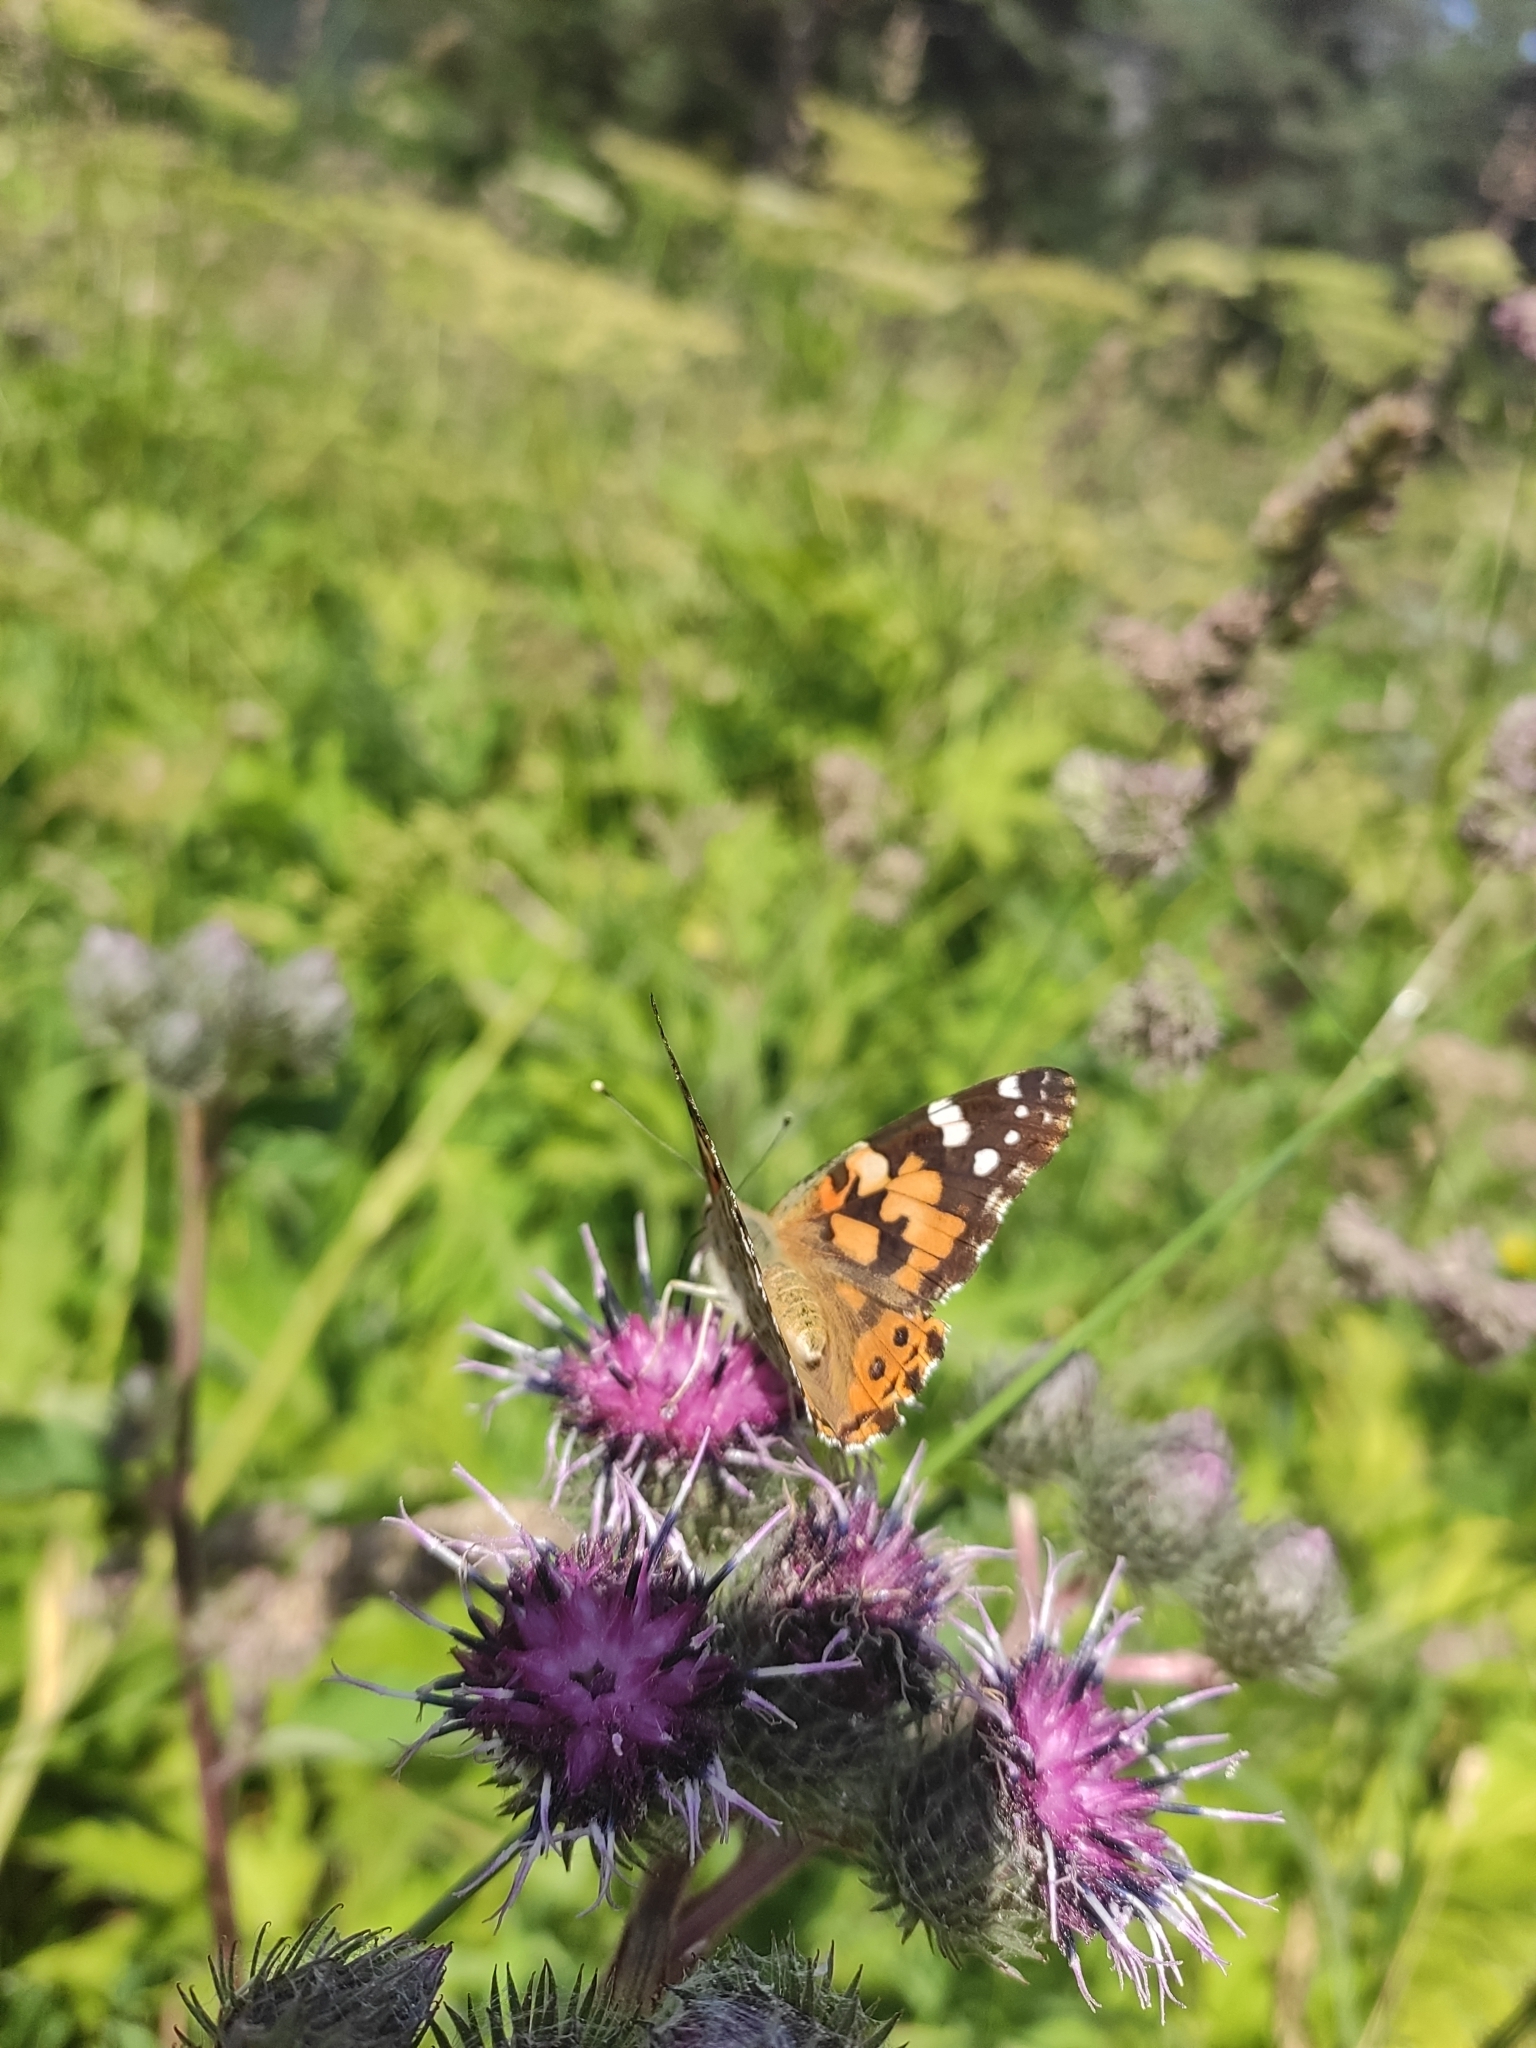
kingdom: Animalia
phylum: Arthropoda
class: Insecta
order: Lepidoptera
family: Nymphalidae
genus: Vanessa
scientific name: Vanessa cardui
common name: Painted lady
